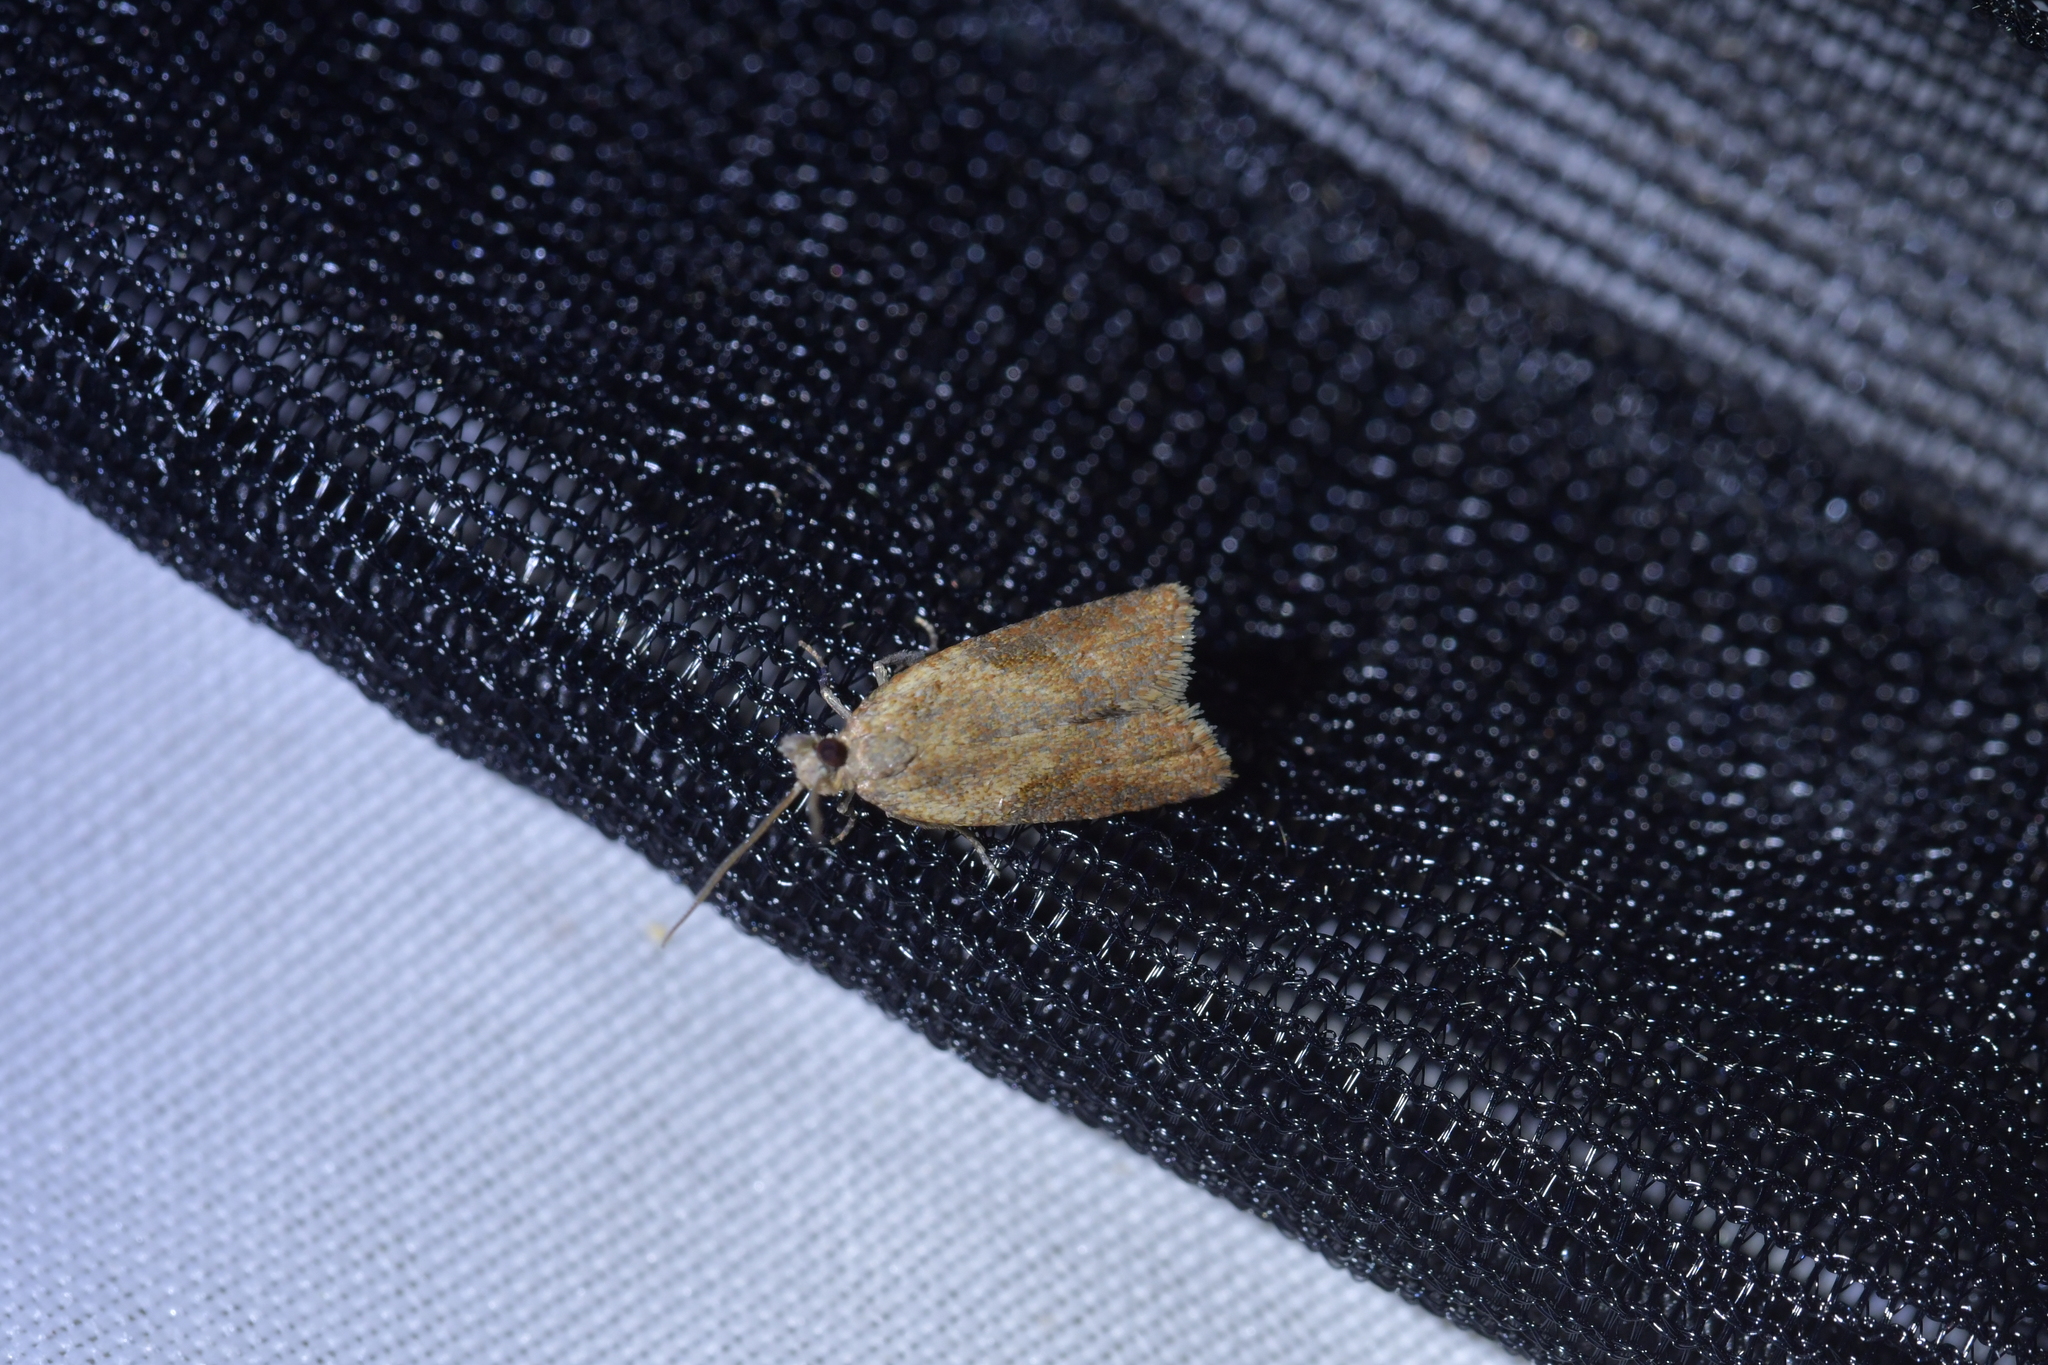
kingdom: Animalia
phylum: Arthropoda
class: Insecta
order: Lepidoptera
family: Tortricidae
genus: Capua
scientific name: Capua semiferana
